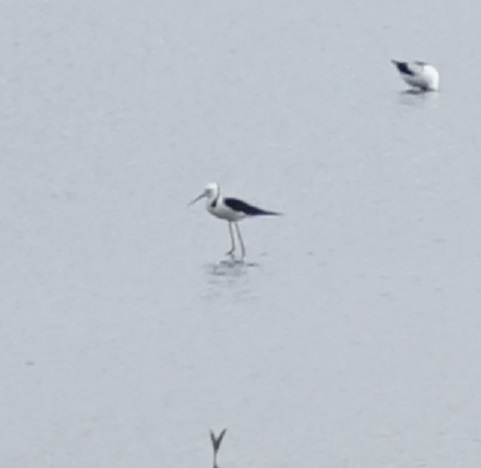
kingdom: Animalia
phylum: Chordata
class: Aves
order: Charadriiformes
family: Recurvirostridae
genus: Himantopus
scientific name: Himantopus leucocephalus
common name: White-headed stilt
